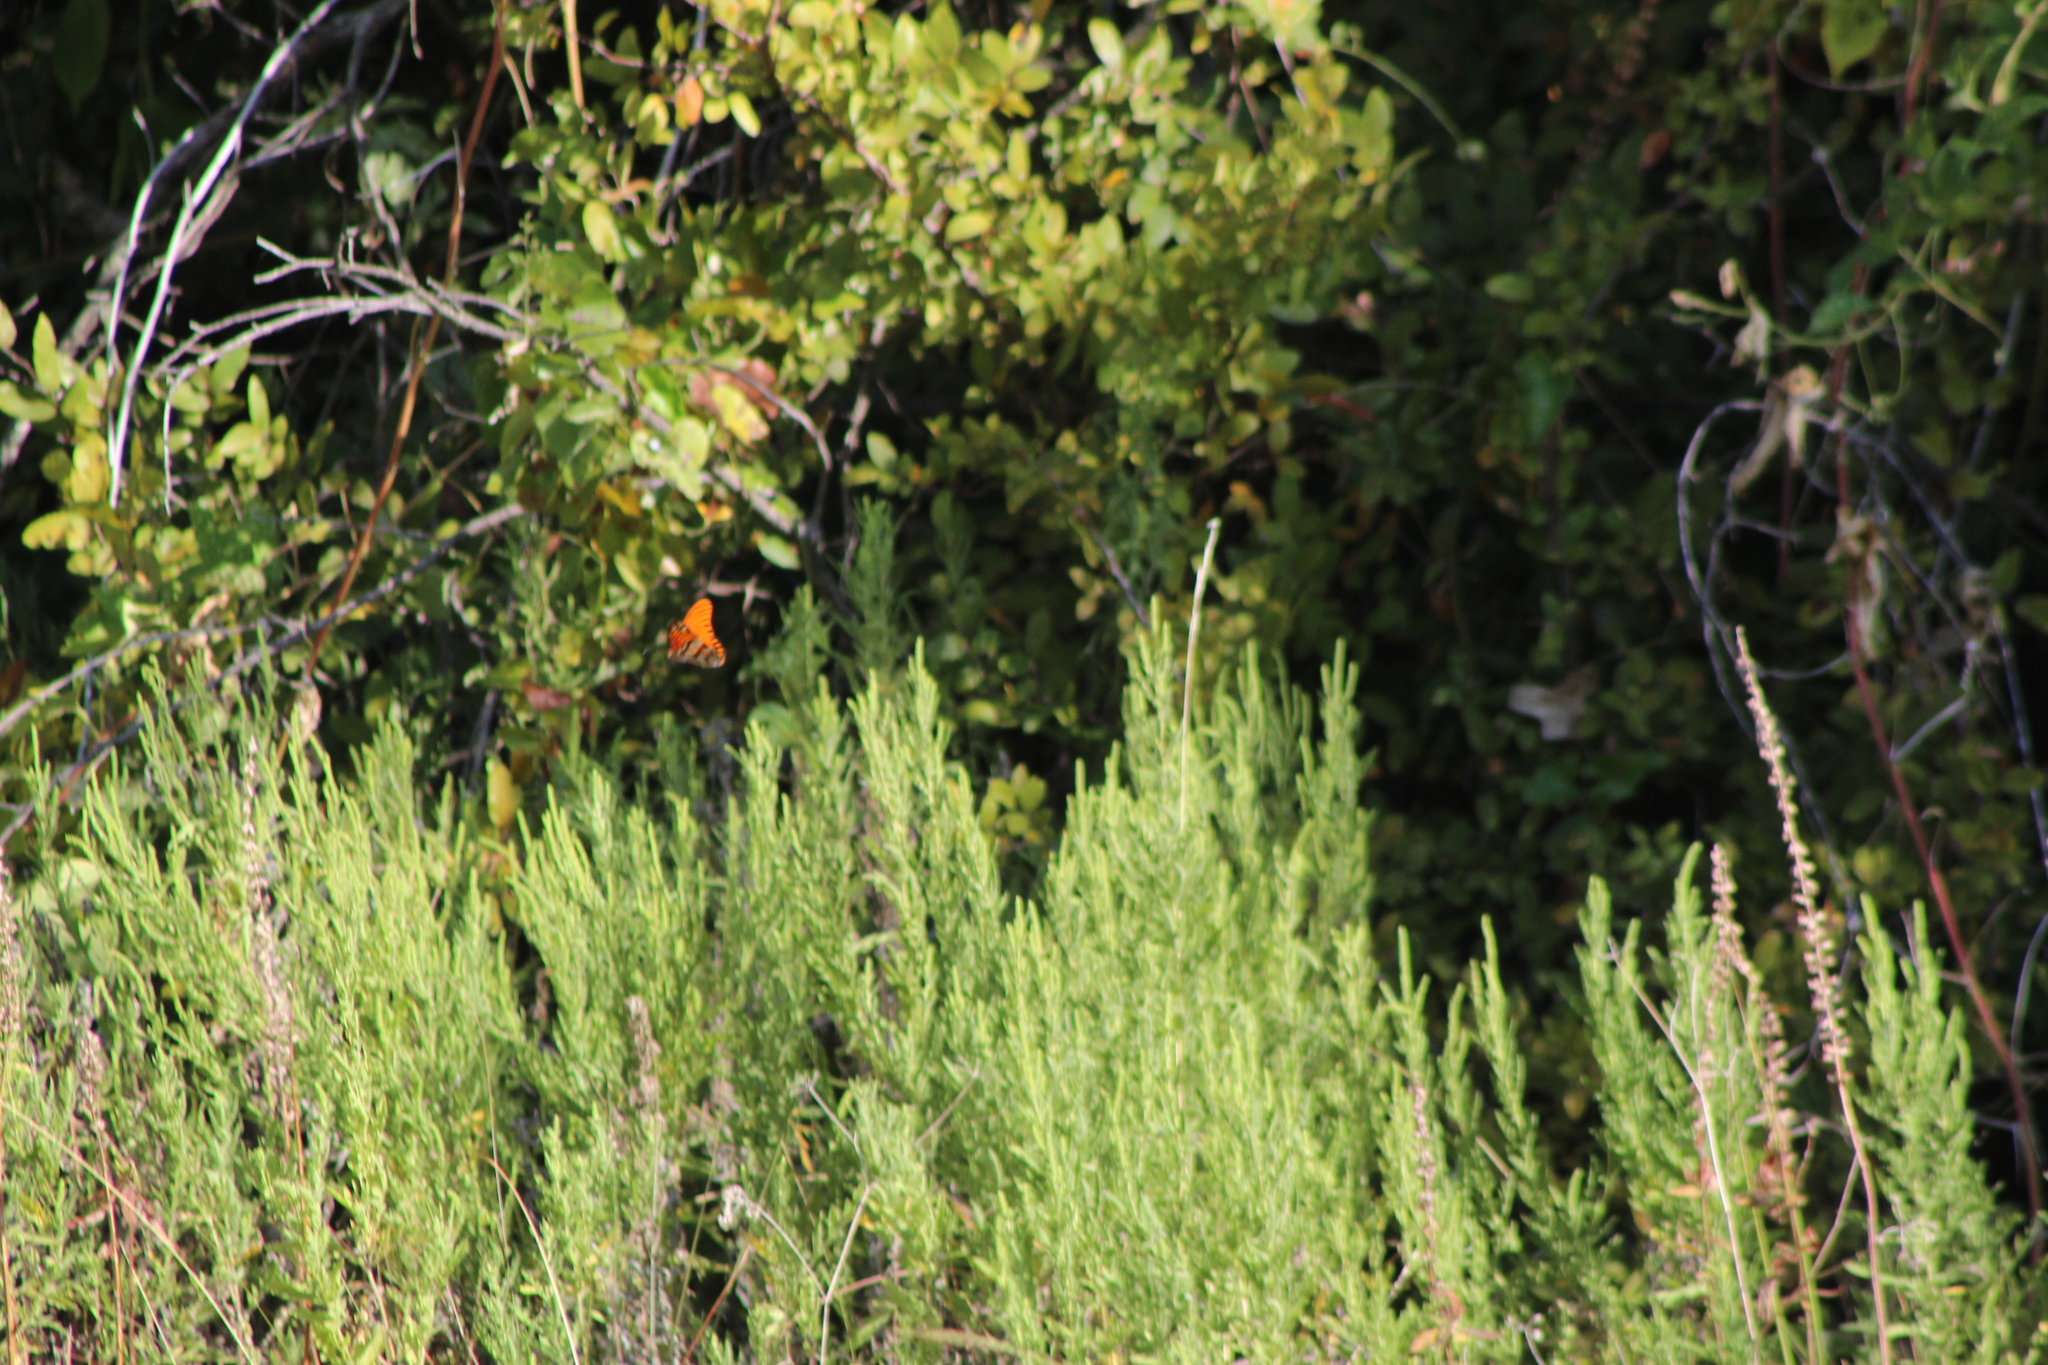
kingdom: Animalia
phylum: Arthropoda
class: Insecta
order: Lepidoptera
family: Nymphalidae
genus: Dione
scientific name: Dione vanillae
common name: Gulf fritillary
